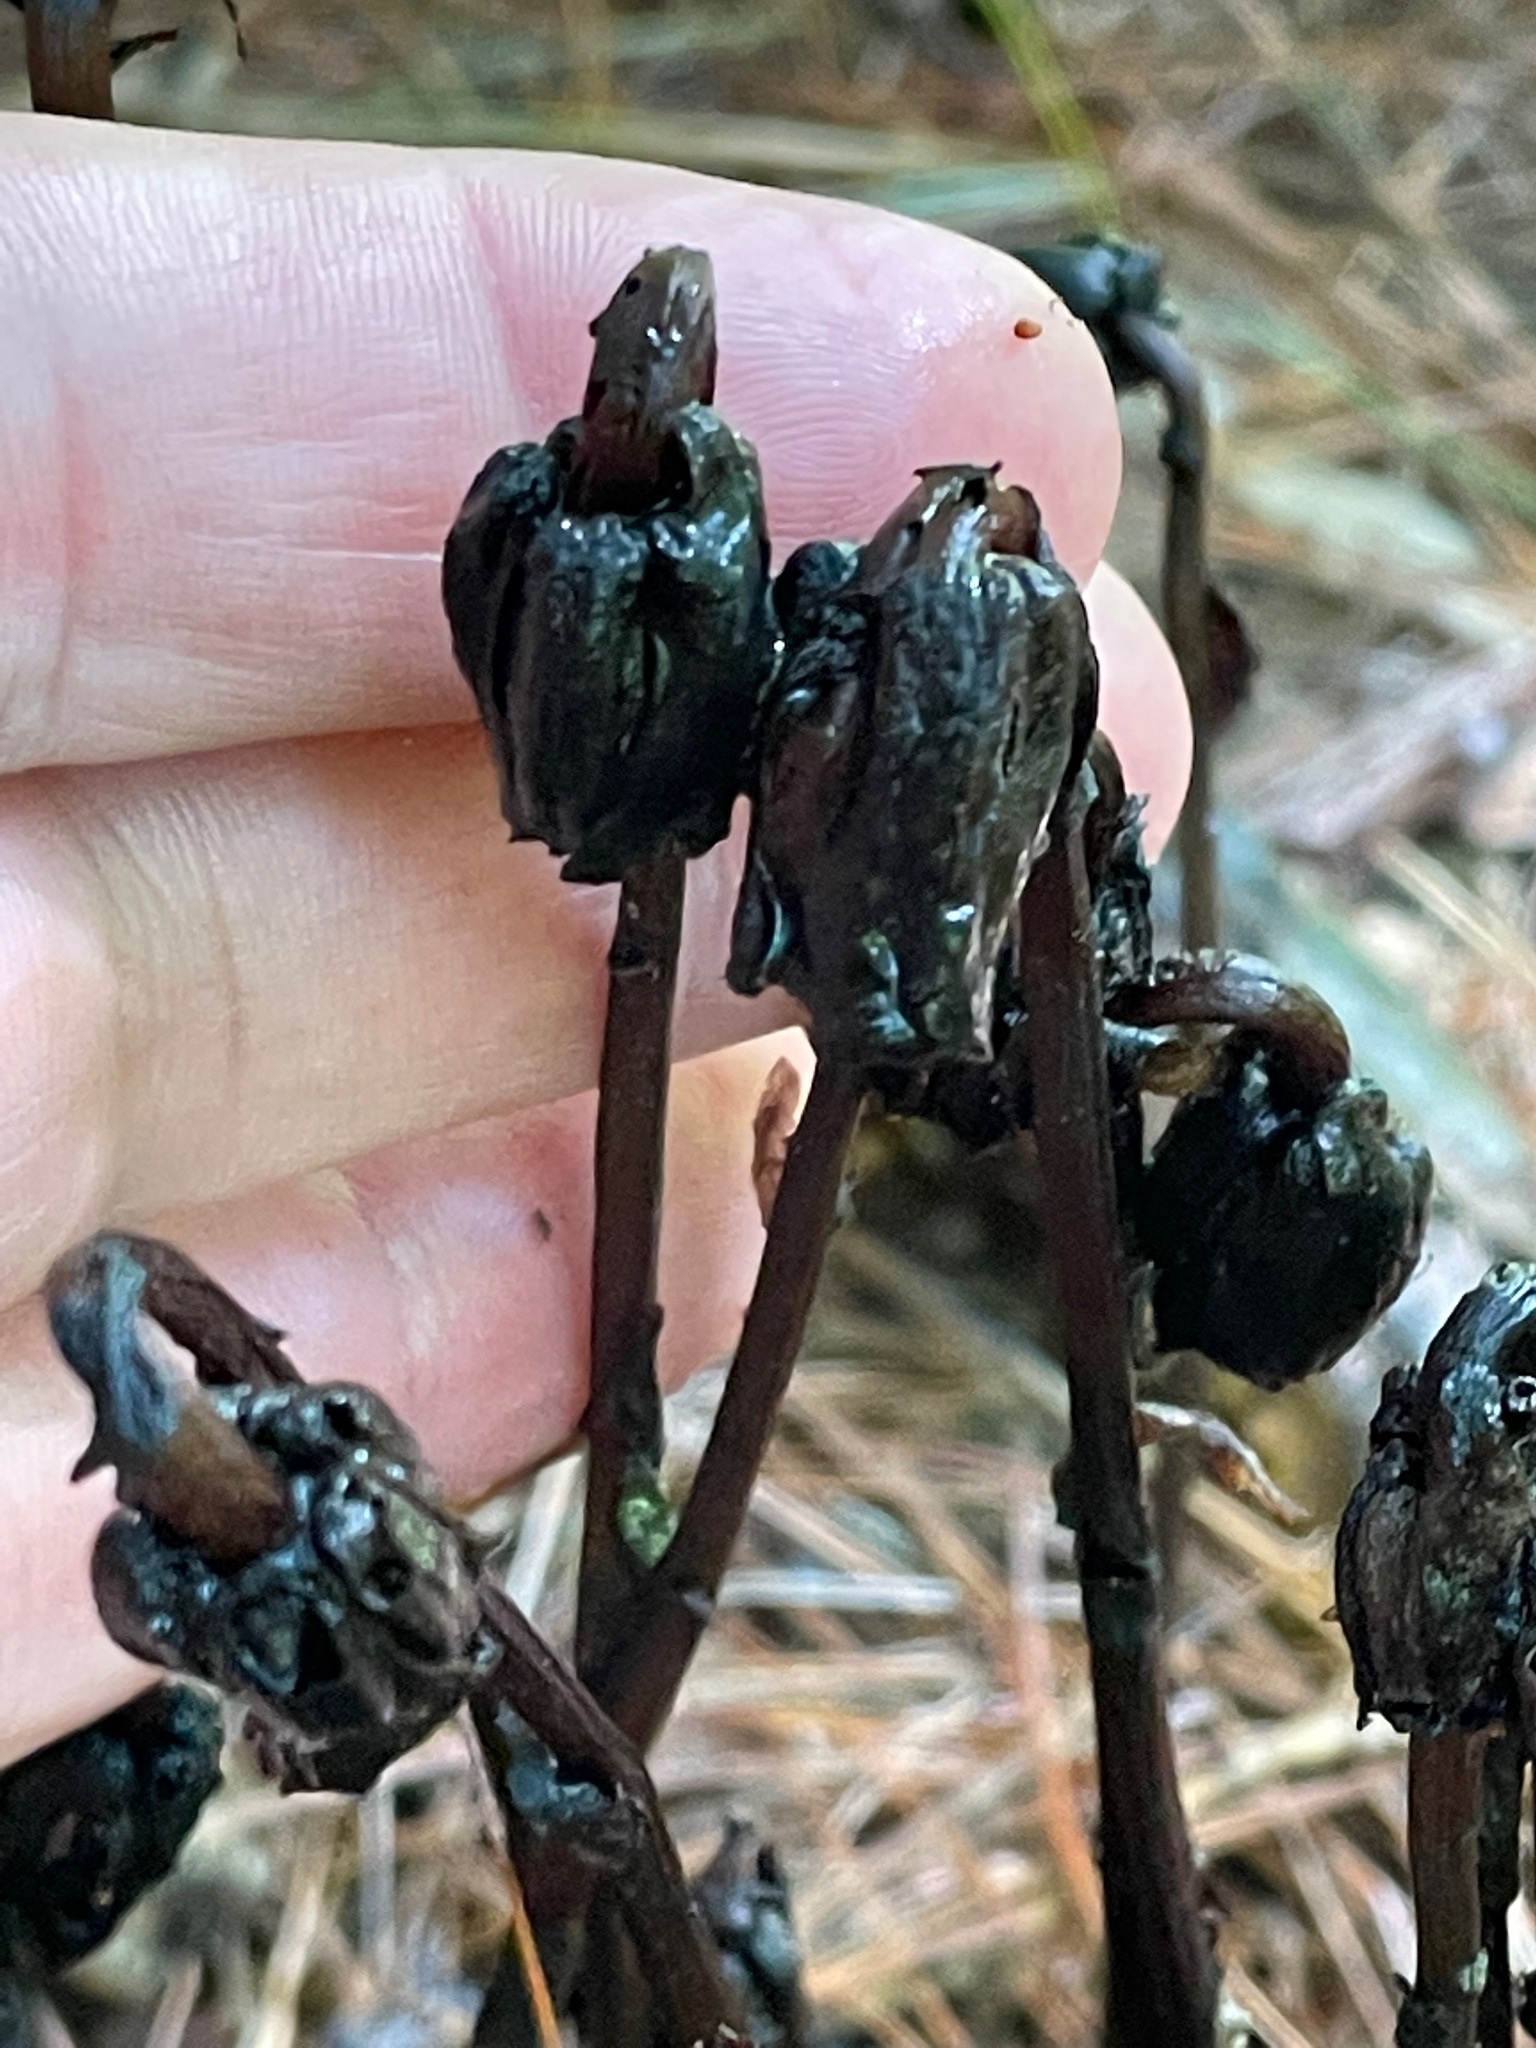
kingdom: Plantae
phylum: Tracheophyta
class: Magnoliopsida
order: Ericales
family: Ericaceae
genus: Monotropa
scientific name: Monotropa uniflora
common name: Convulsion root
